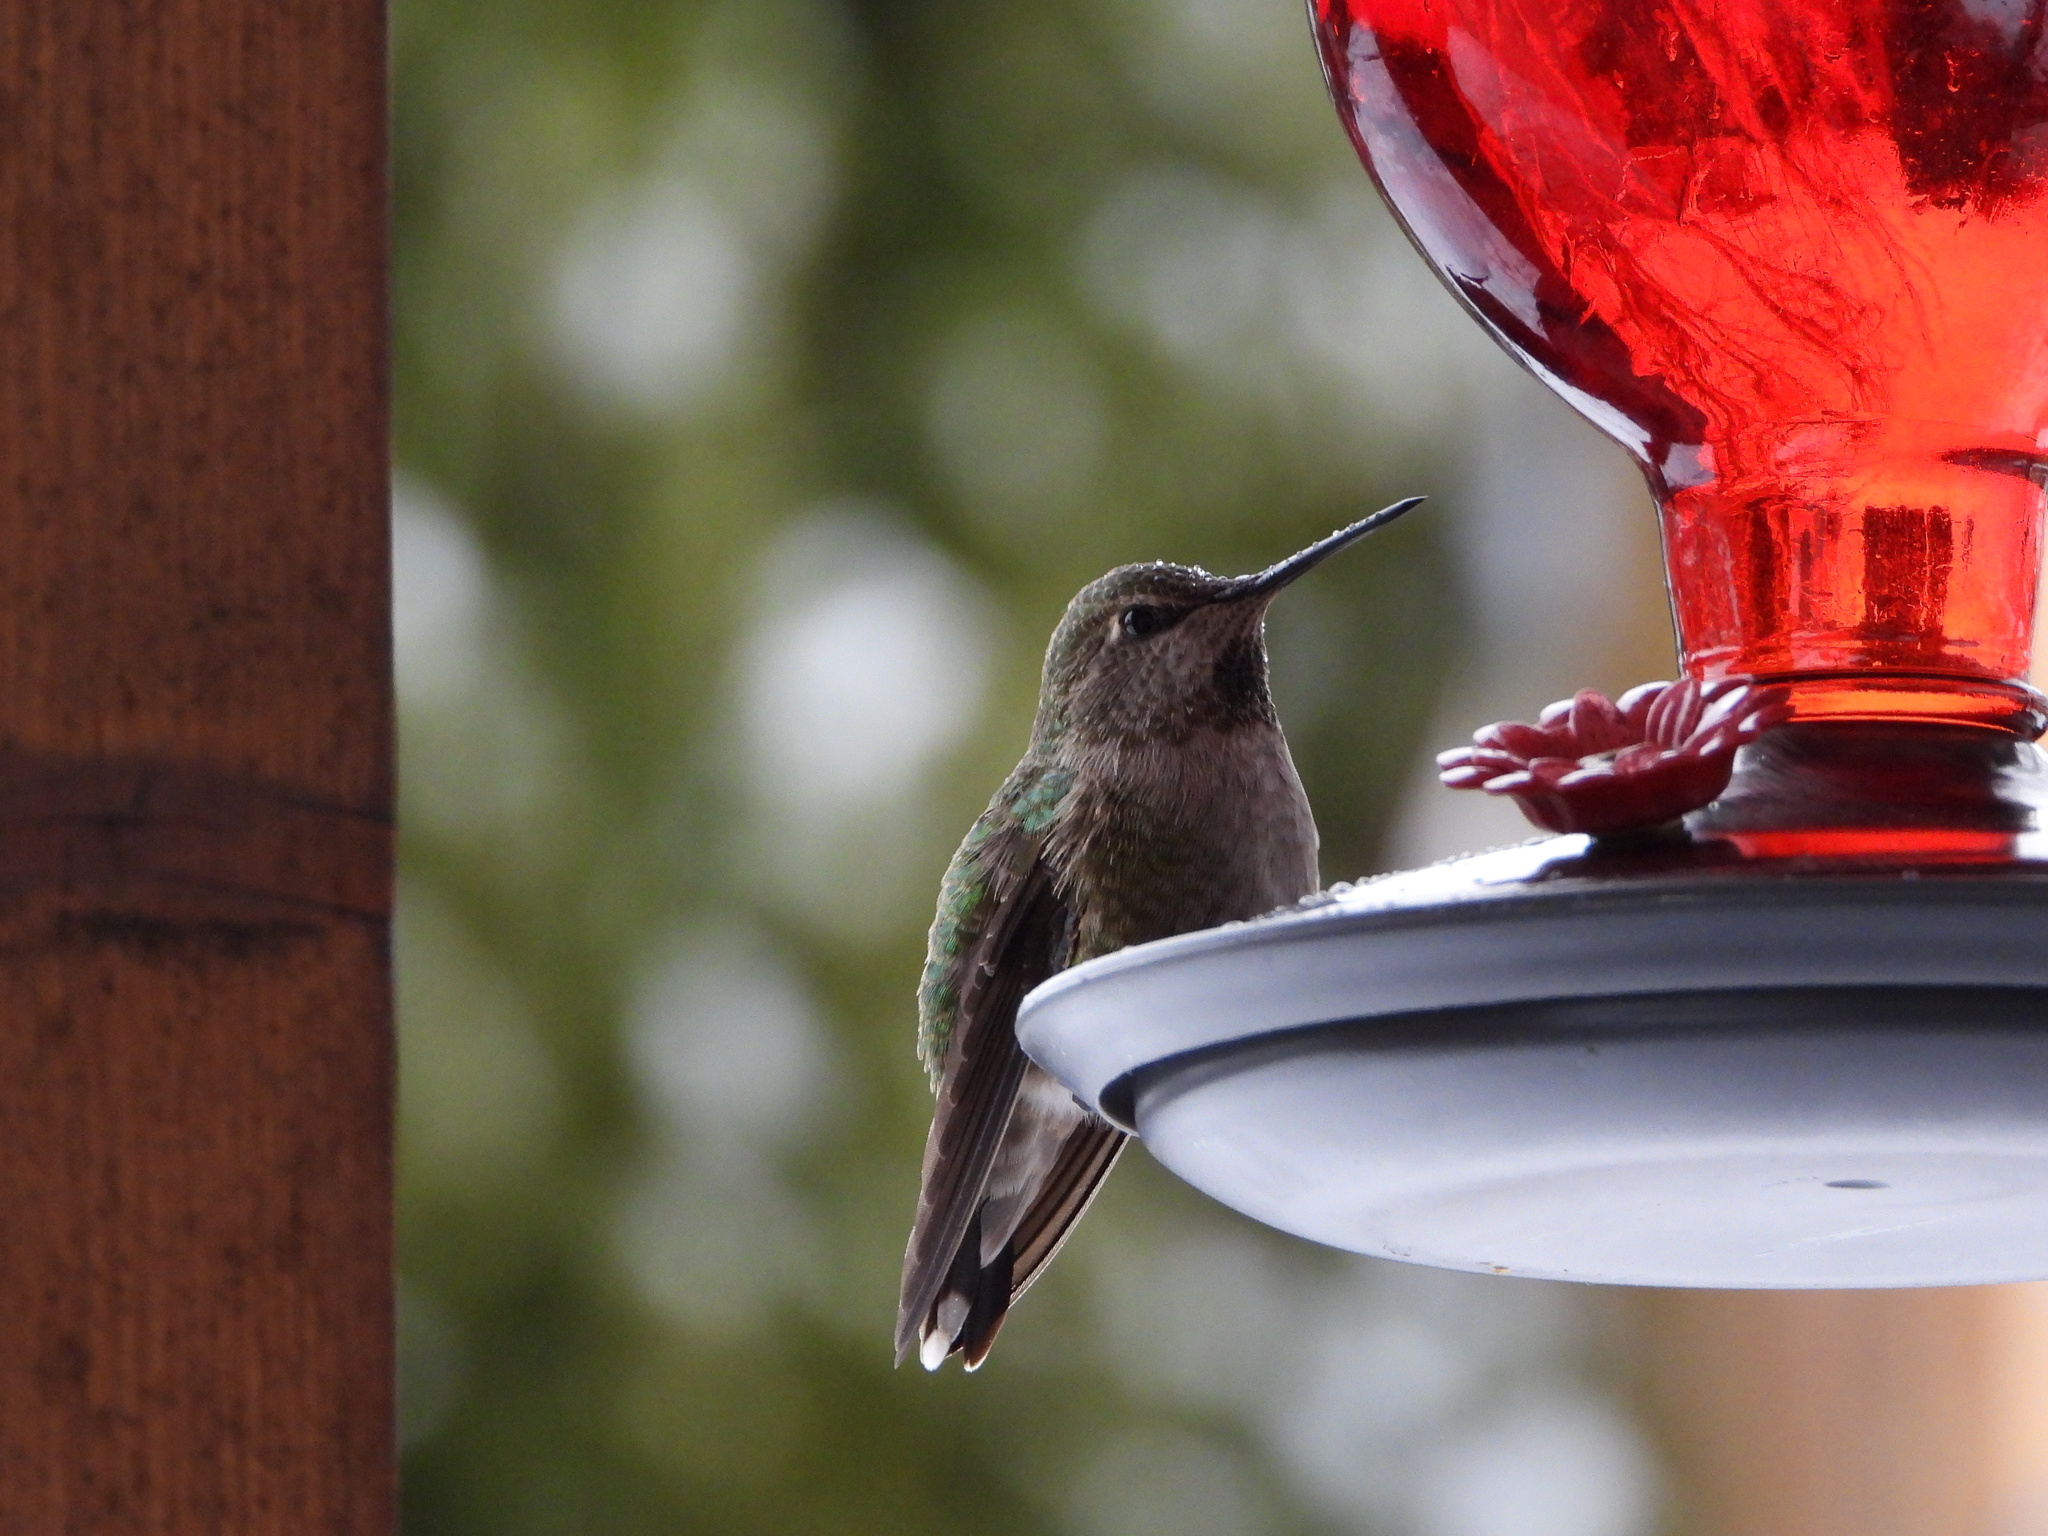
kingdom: Animalia
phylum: Chordata
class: Aves
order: Apodiformes
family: Trochilidae
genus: Calypte
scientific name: Calypte anna
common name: Anna's hummingbird
